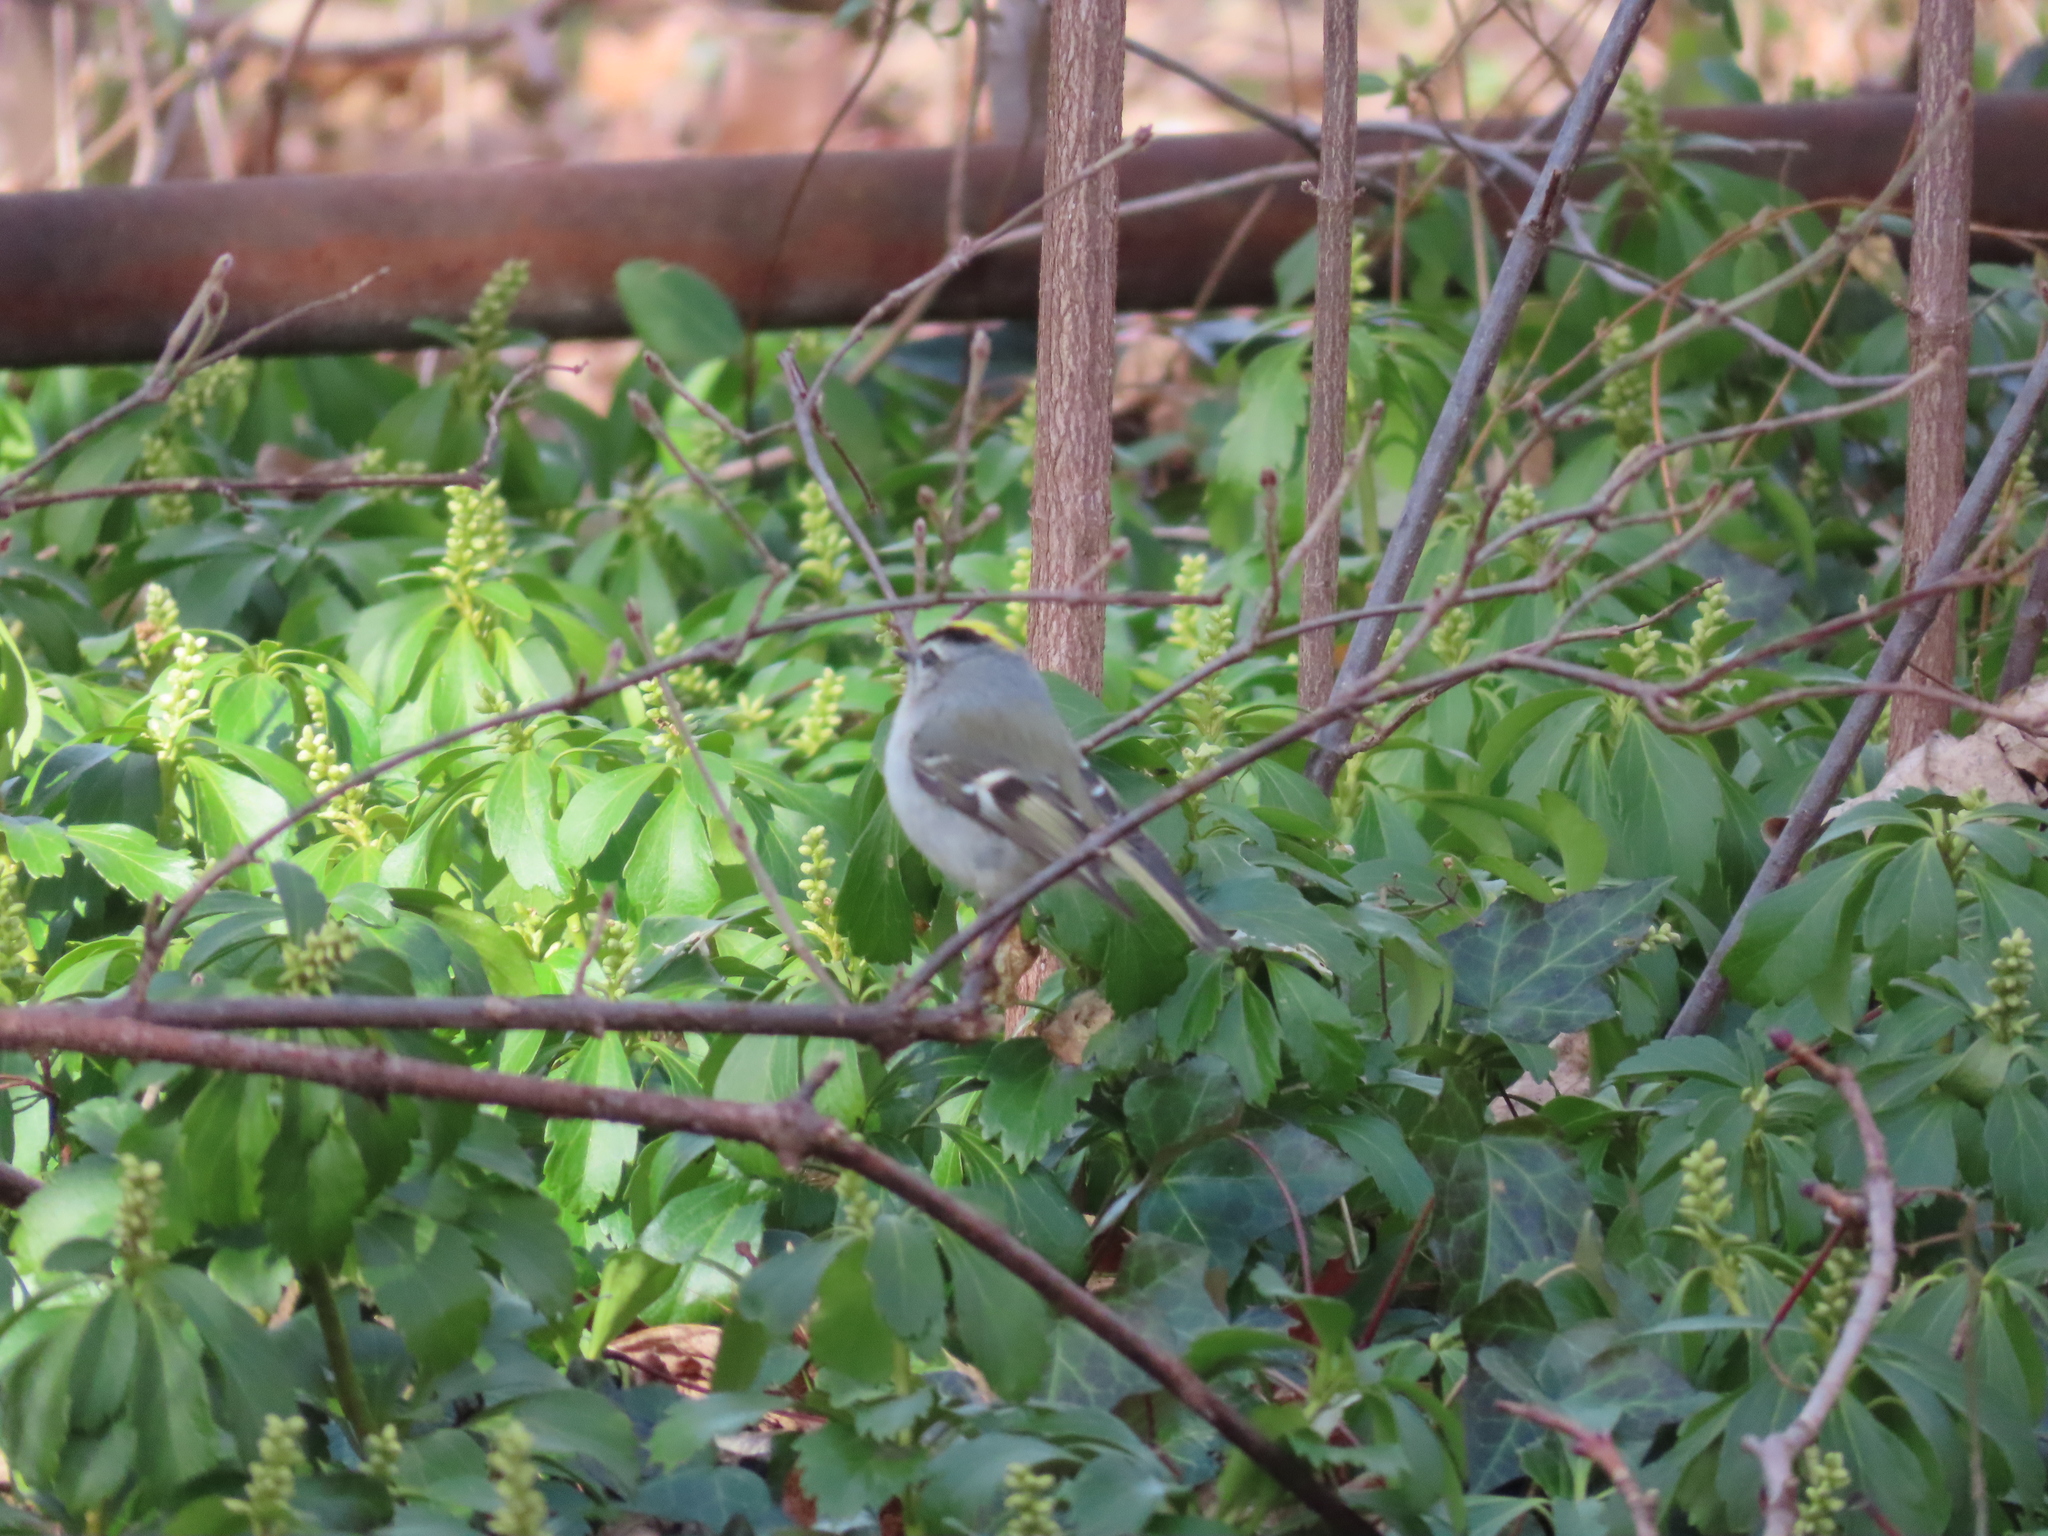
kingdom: Animalia
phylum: Chordata
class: Aves
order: Passeriformes
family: Regulidae
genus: Regulus
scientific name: Regulus satrapa
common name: Golden-crowned kinglet
